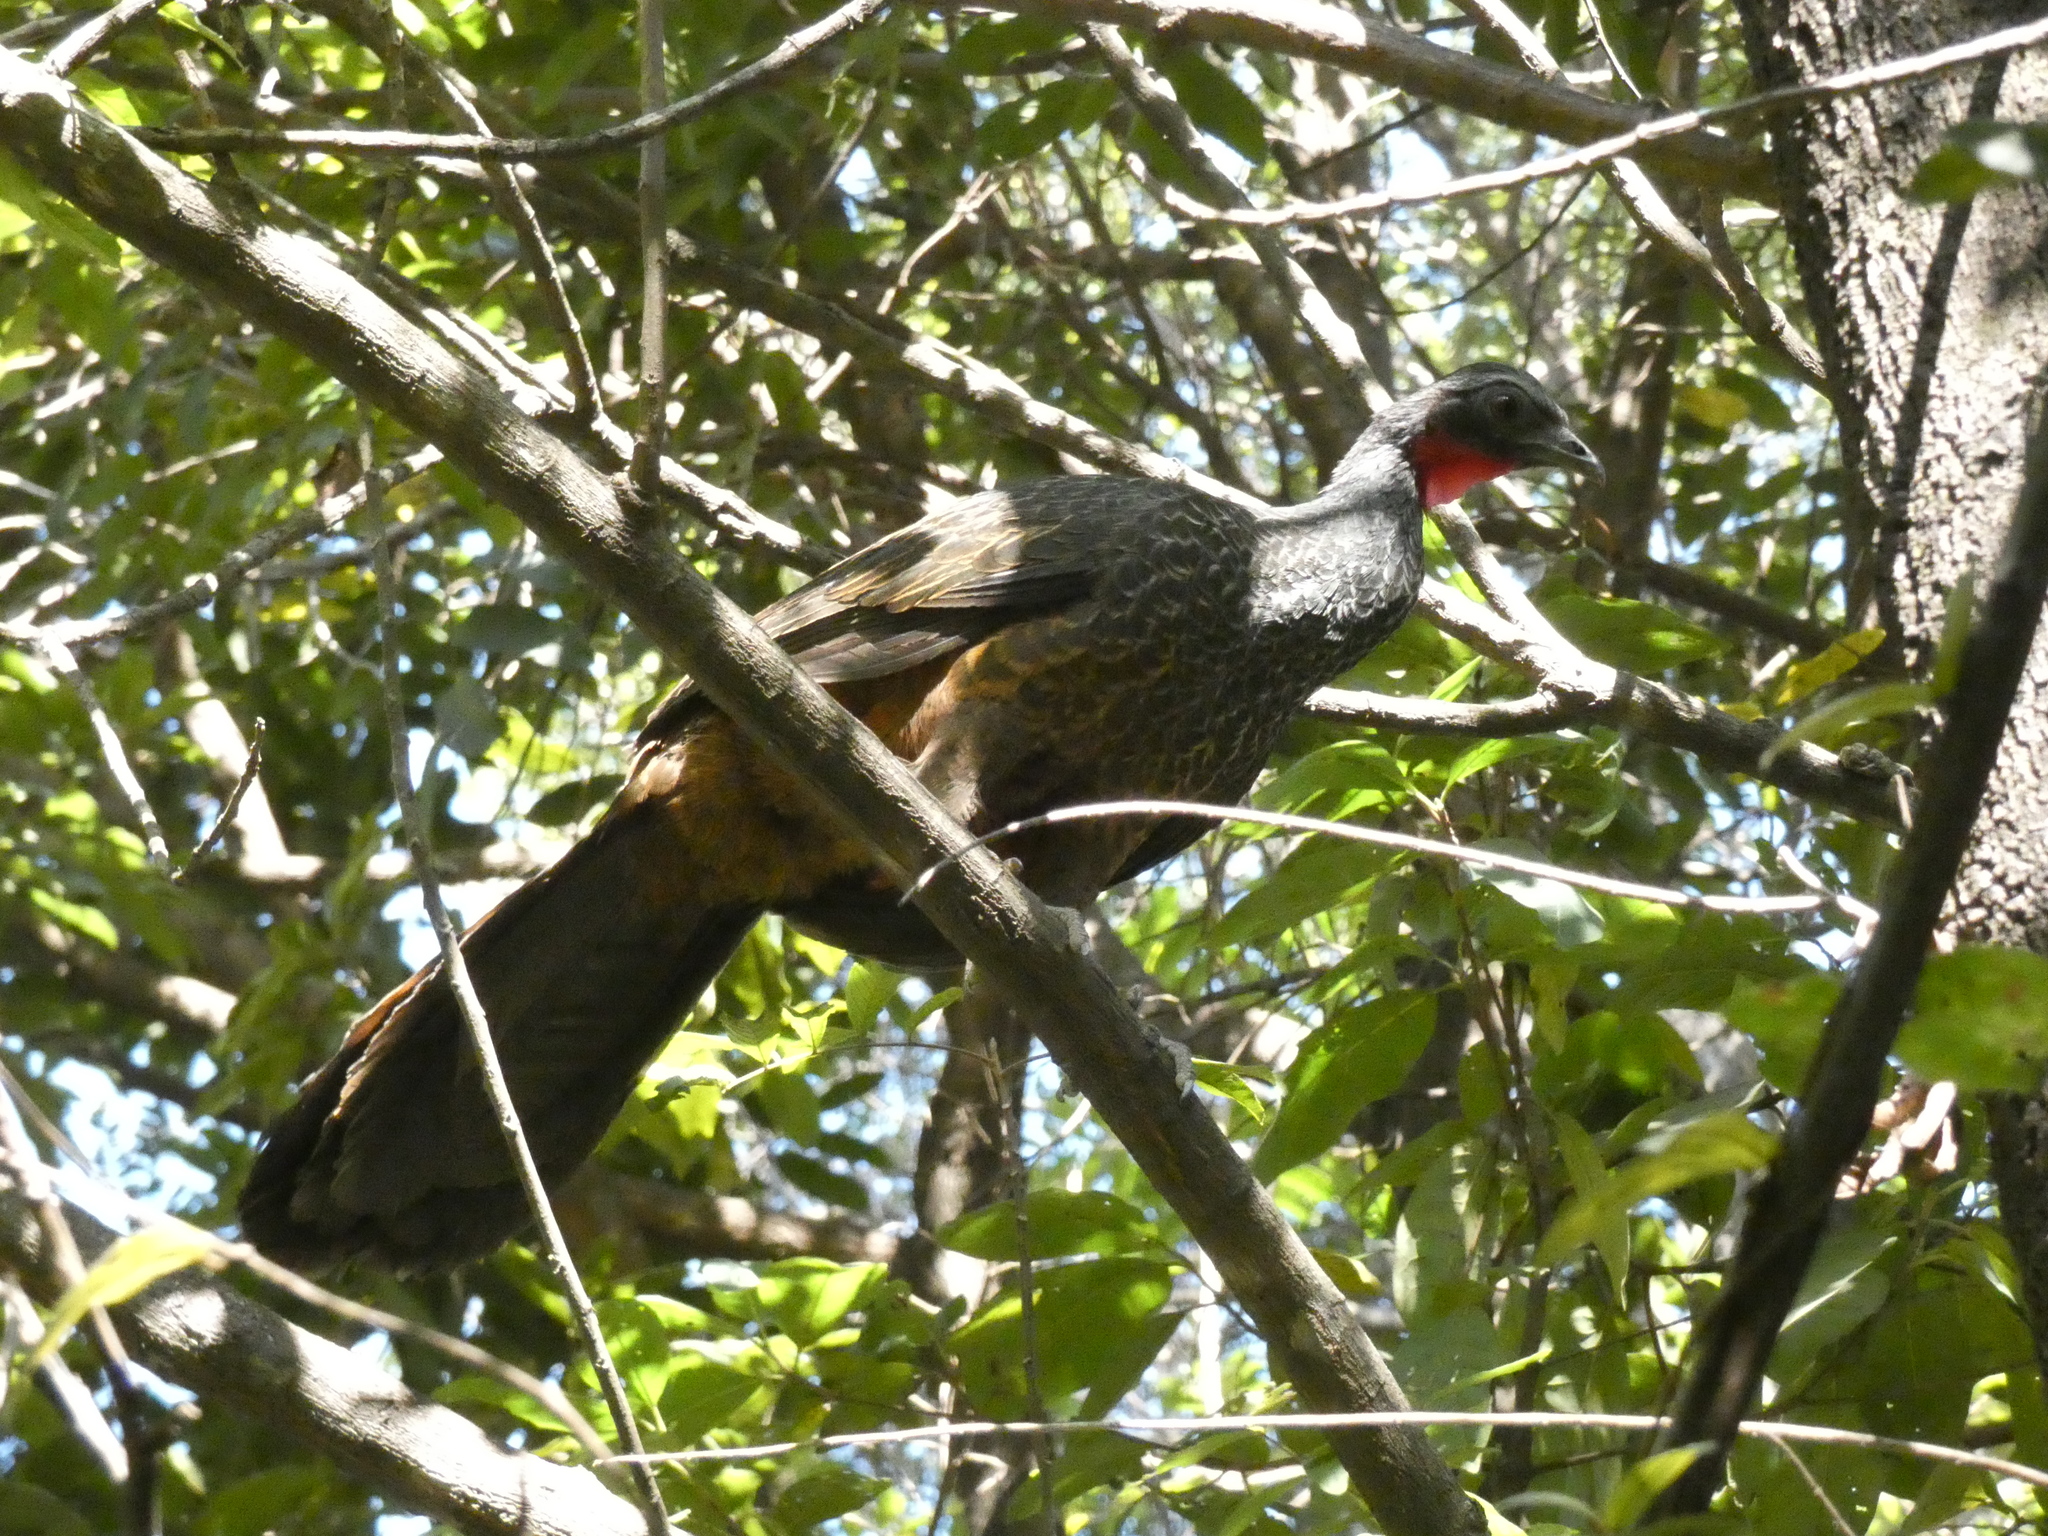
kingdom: Animalia
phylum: Chordata
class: Aves
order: Galliformes
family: Cracidae
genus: Penelope
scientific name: Penelope superciliaris
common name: Rusty-margined guan
